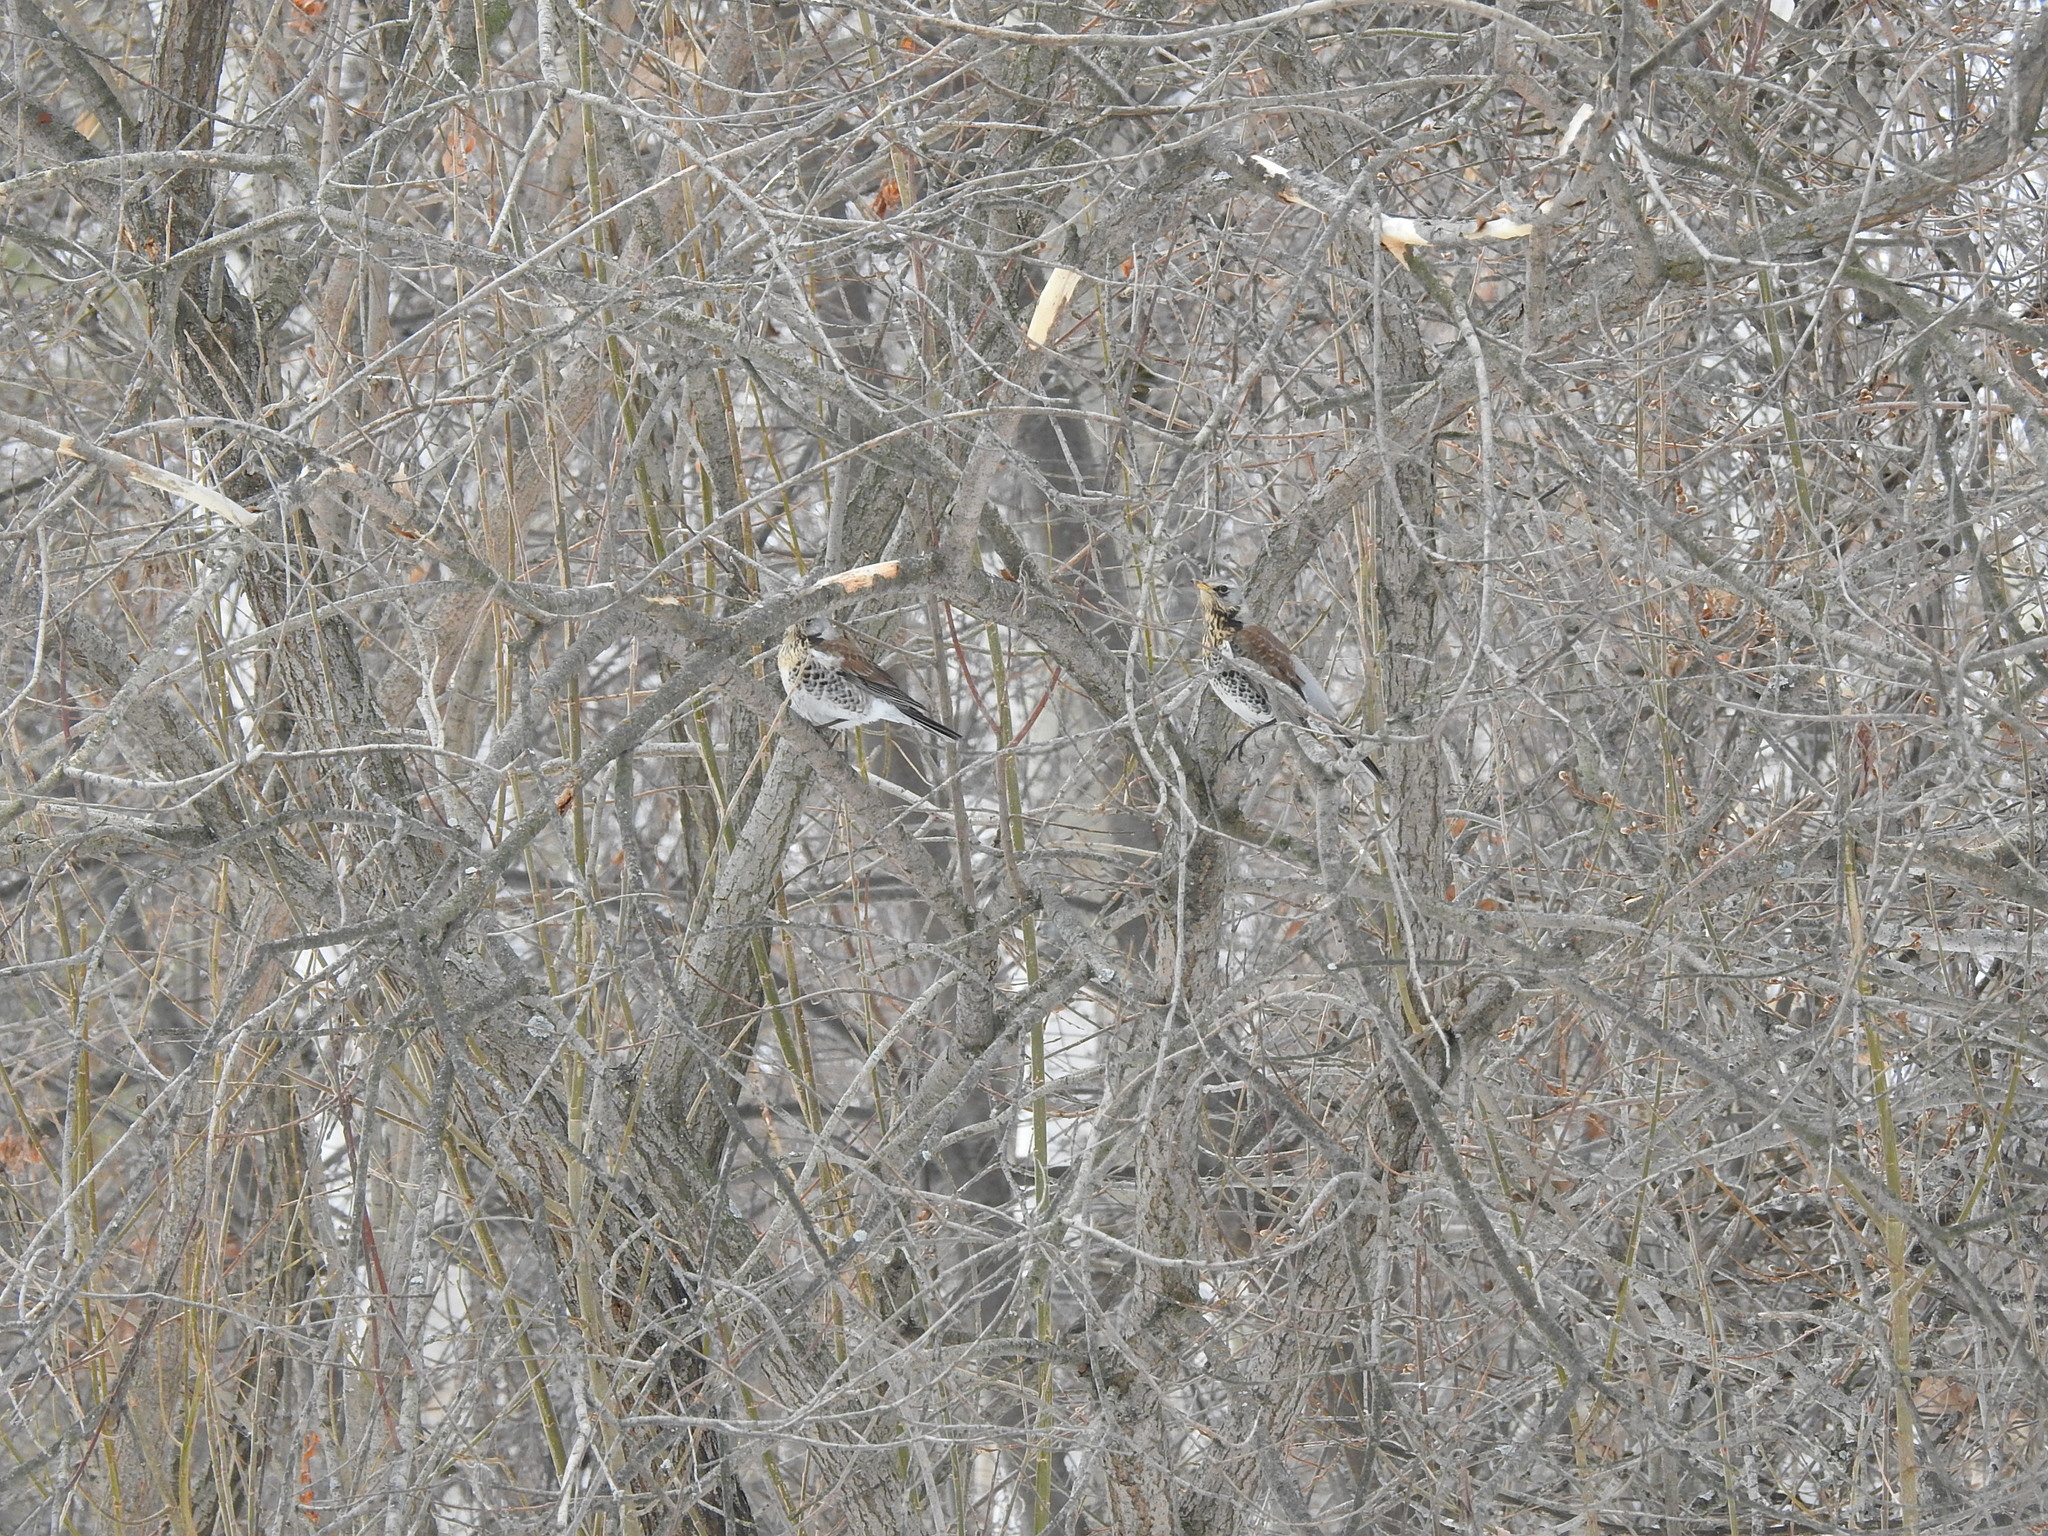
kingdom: Animalia
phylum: Chordata
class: Aves
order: Passeriformes
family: Turdidae
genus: Turdus
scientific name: Turdus pilaris
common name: Fieldfare
